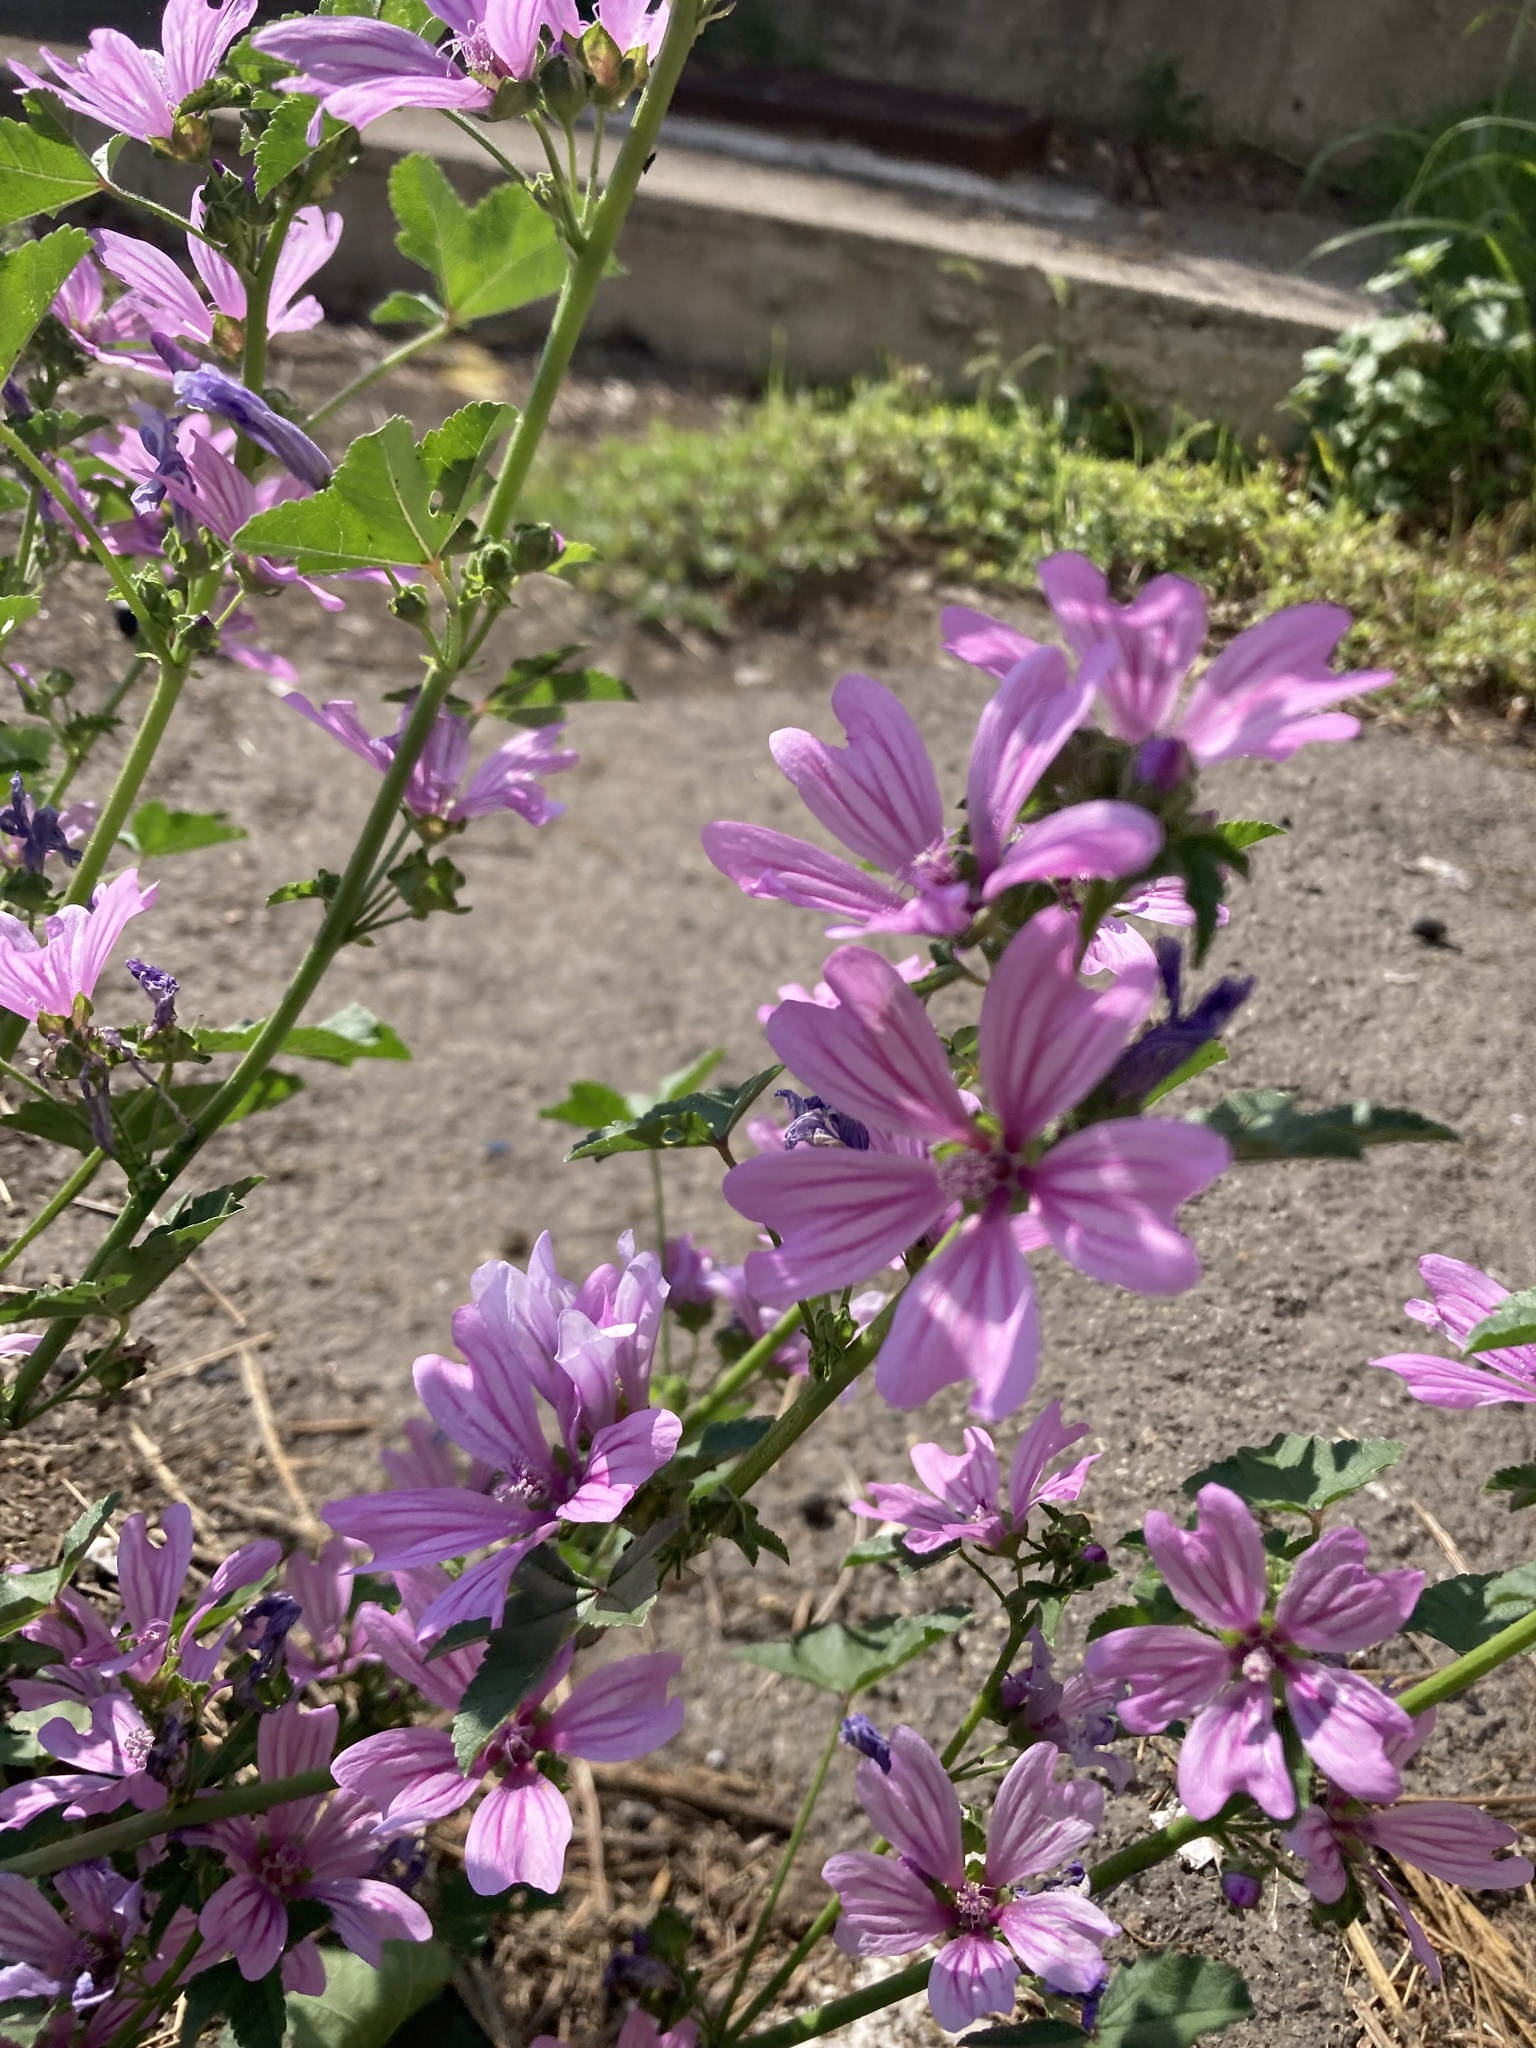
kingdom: Plantae
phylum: Tracheophyta
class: Magnoliopsida
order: Malvales
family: Malvaceae
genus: Malva
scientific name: Malva sylvestris
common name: Common mallow
